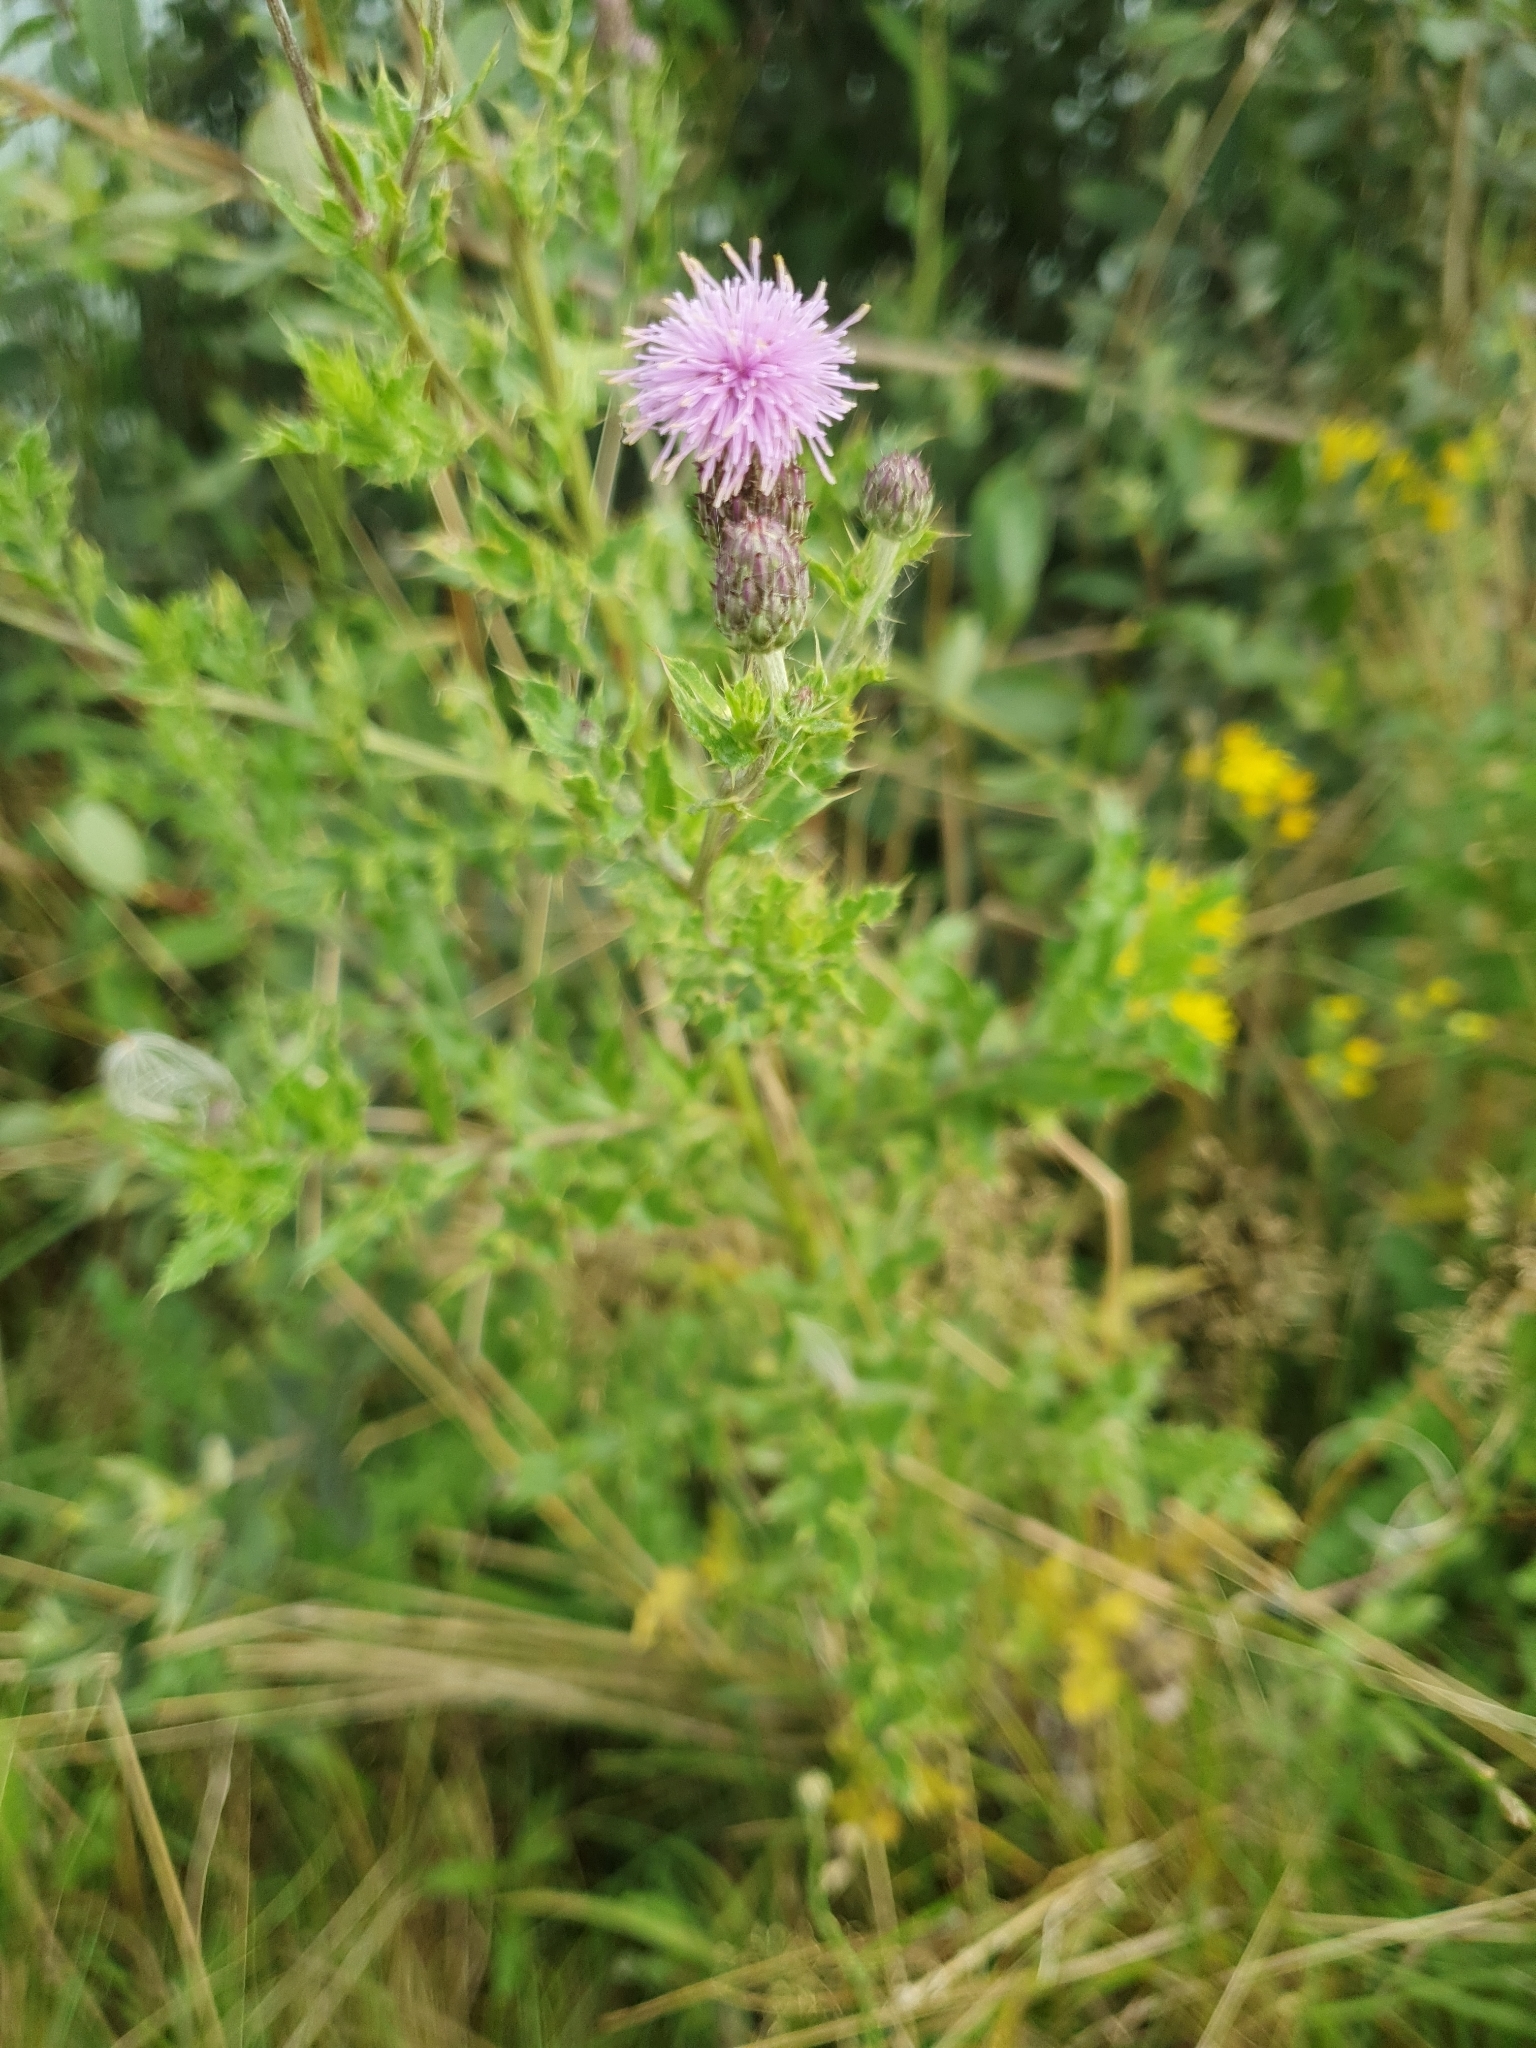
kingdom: Plantae
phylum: Tracheophyta
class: Magnoliopsida
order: Asterales
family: Asteraceae
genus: Cirsium
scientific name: Cirsium arvense
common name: Creeping thistle
